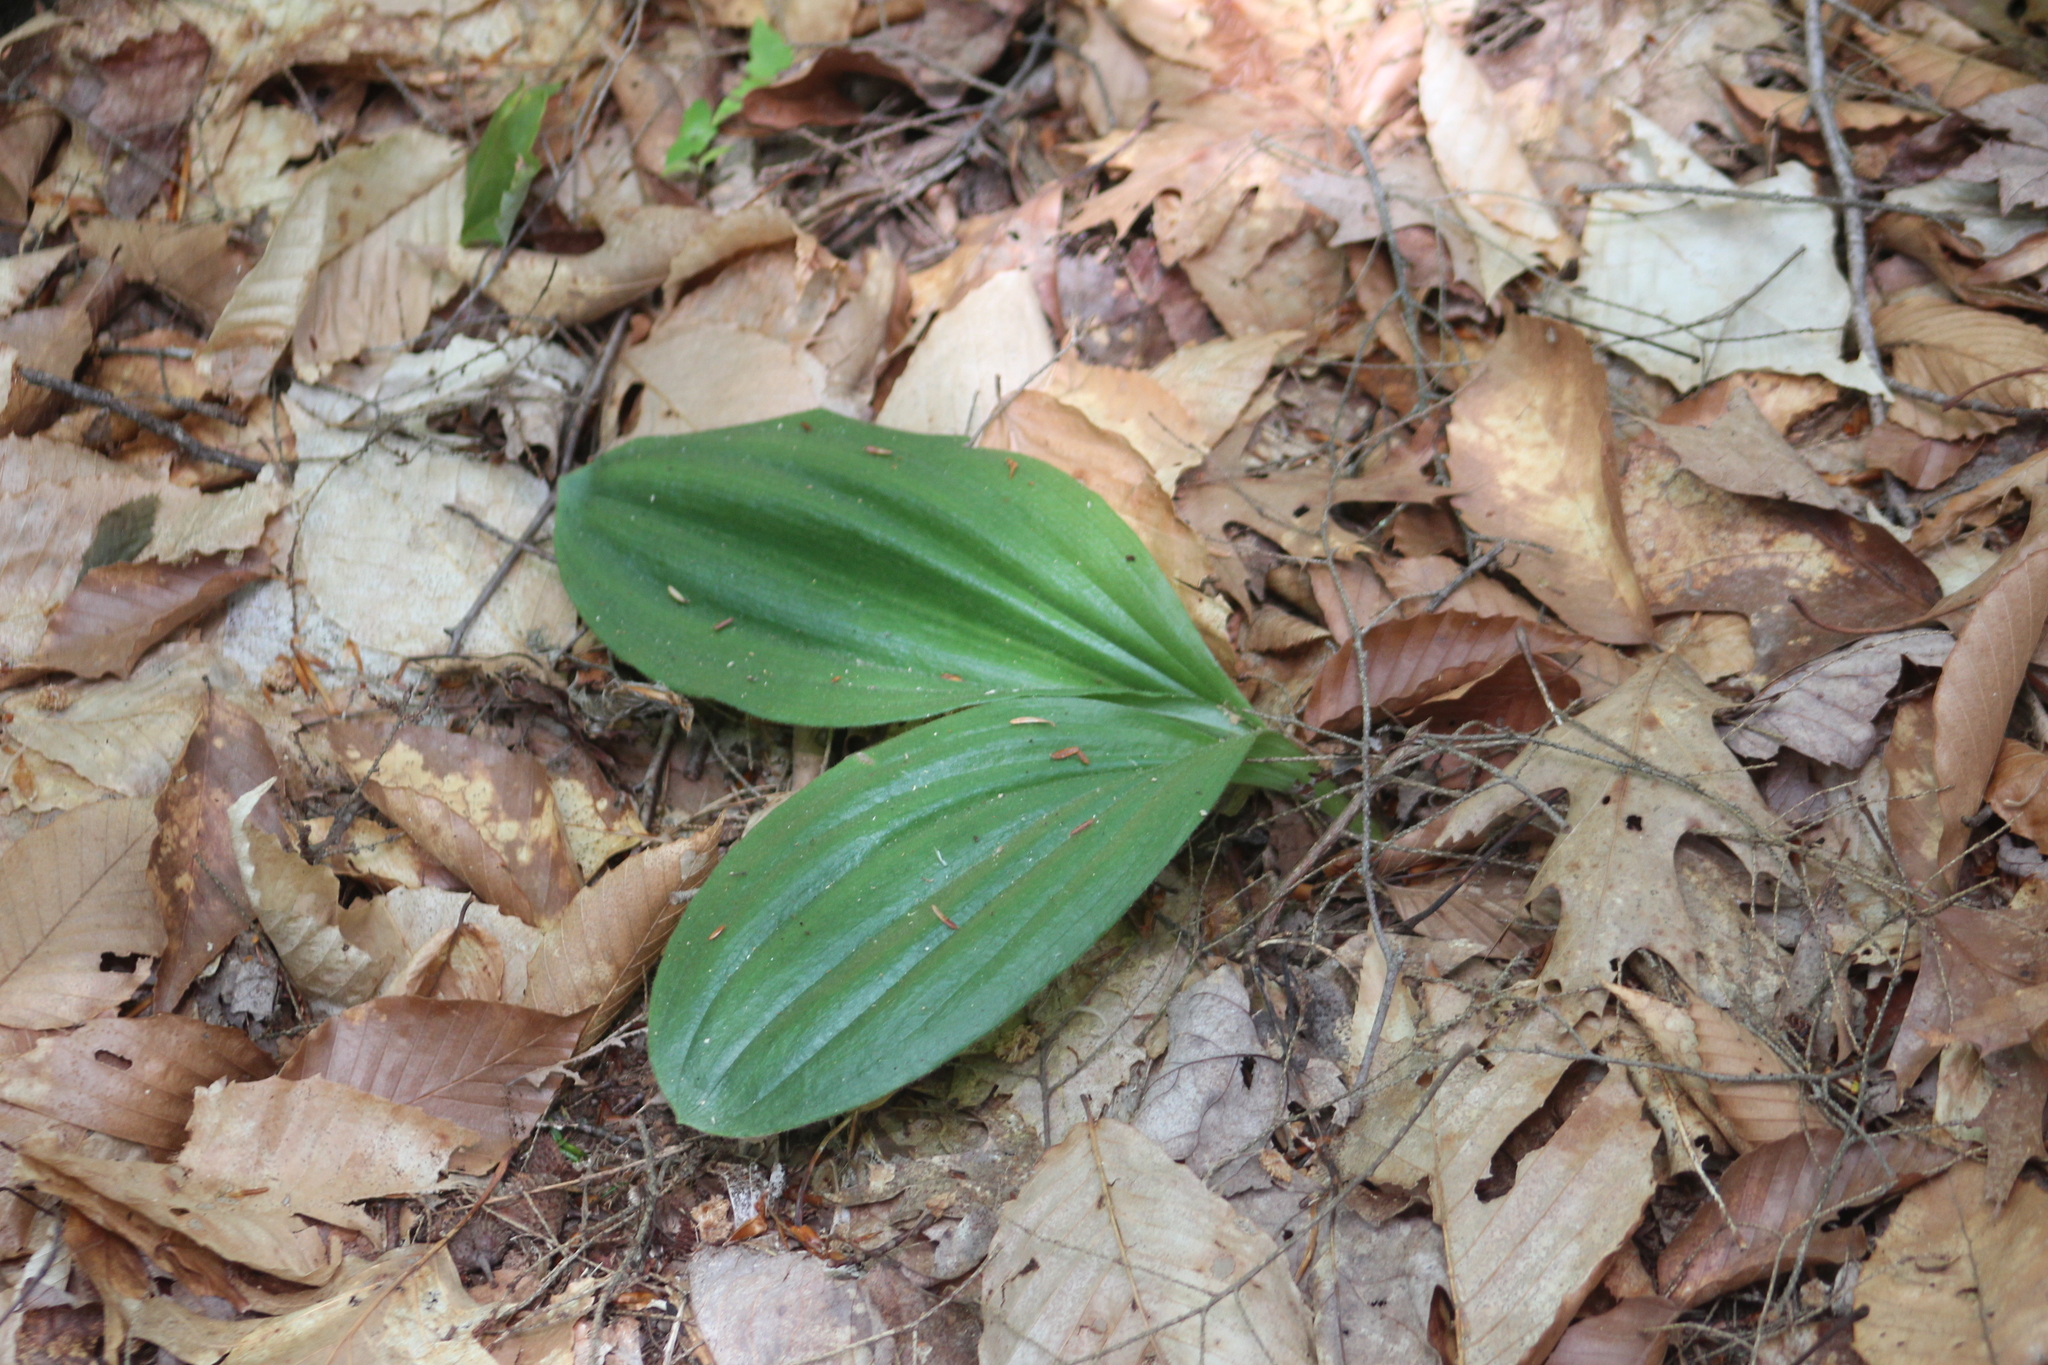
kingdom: Plantae
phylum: Tracheophyta
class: Liliopsida
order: Asparagales
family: Orchidaceae
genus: Cypripedium
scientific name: Cypripedium acaule
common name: Pink lady's-slipper
